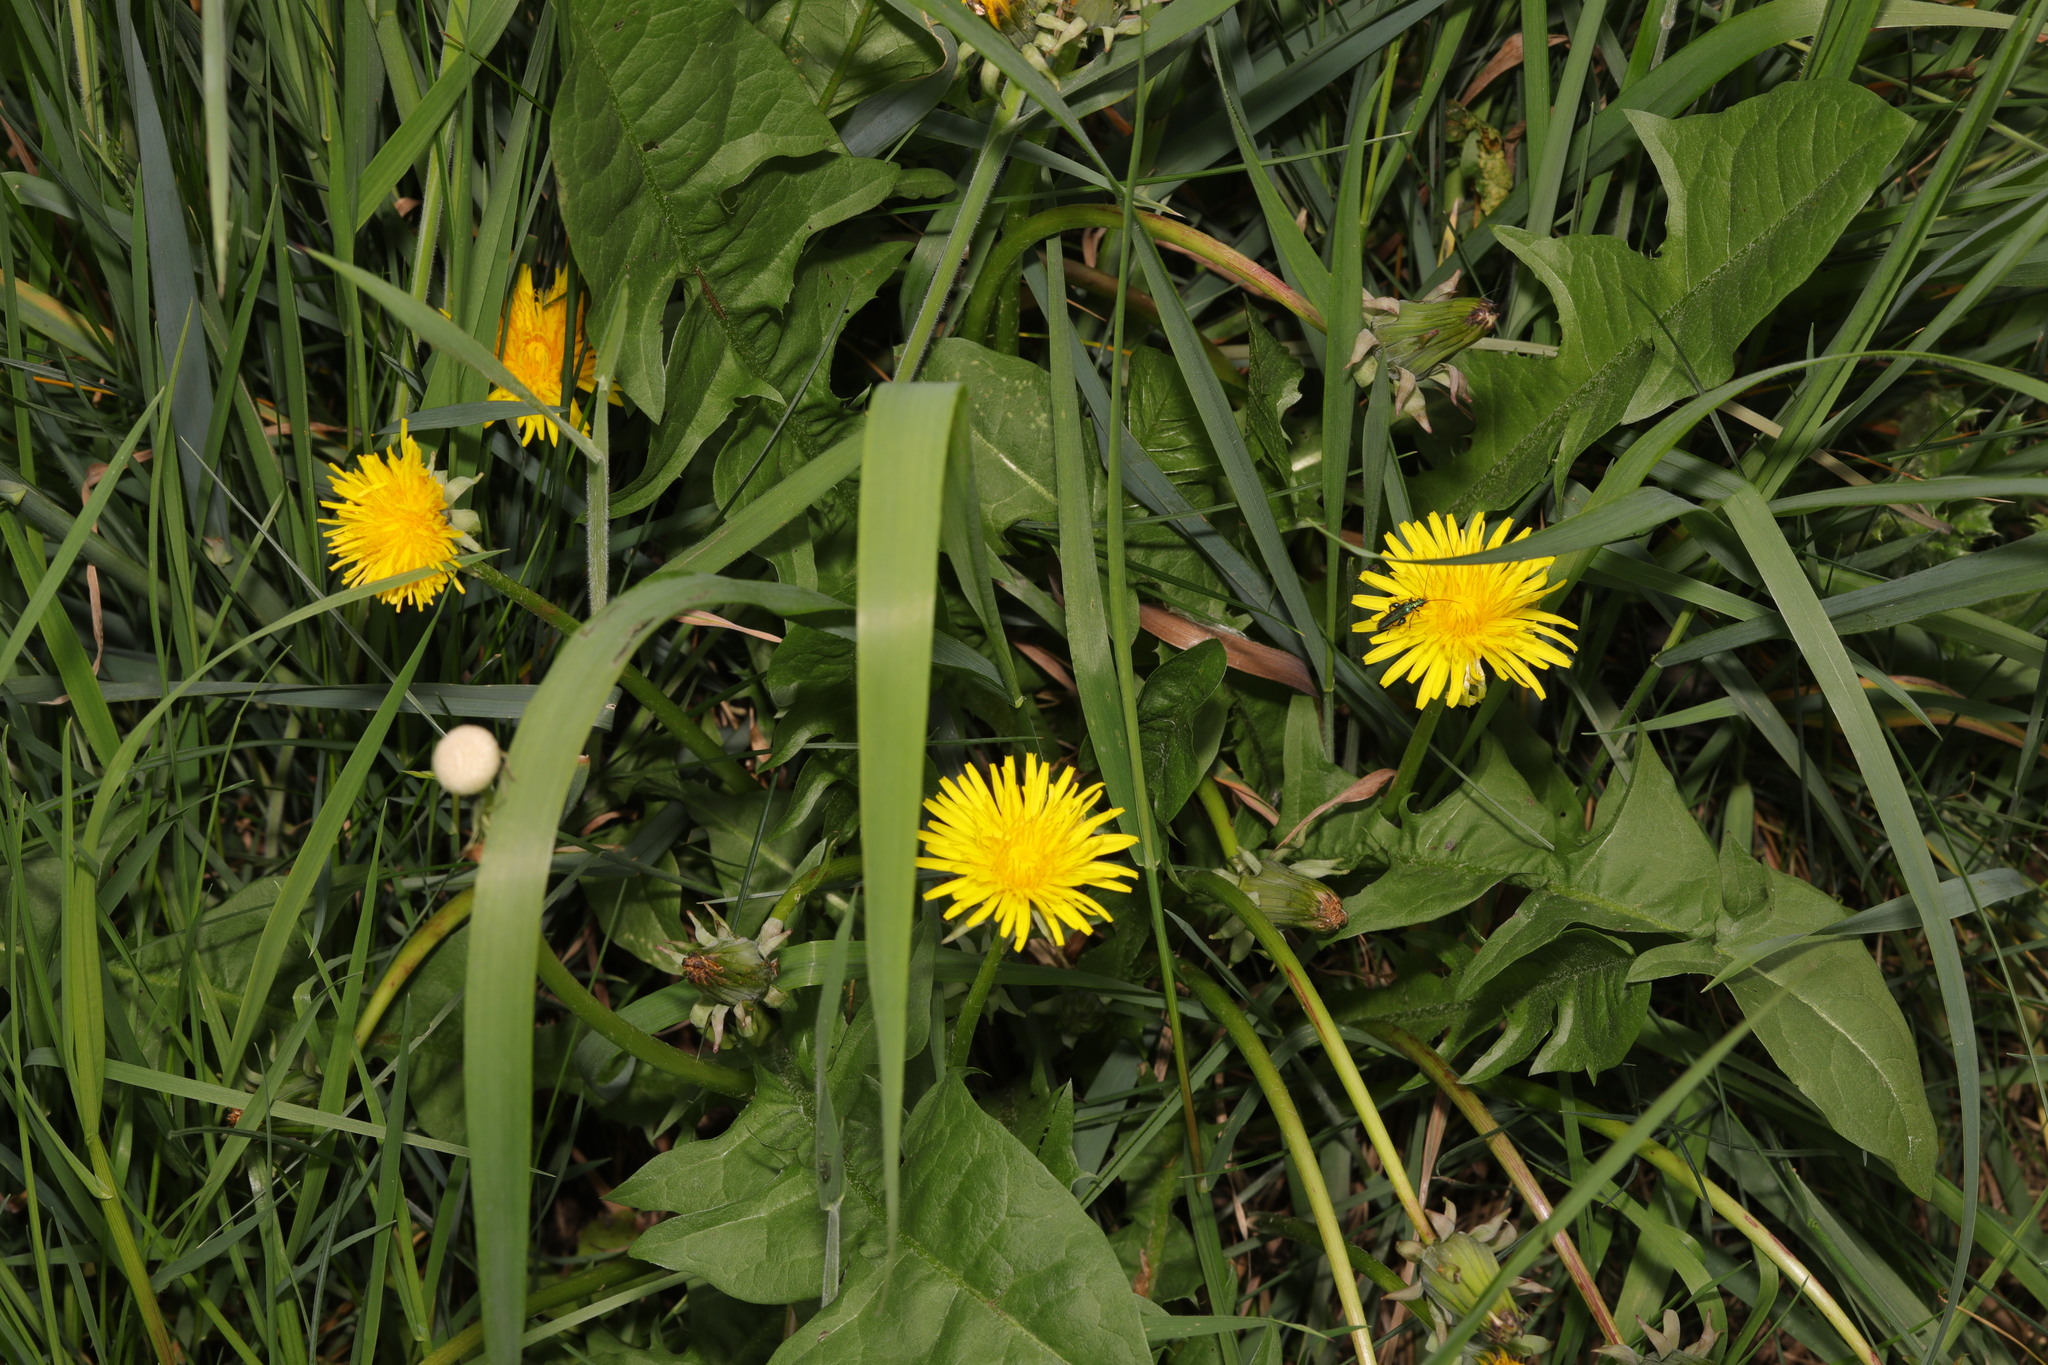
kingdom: Plantae
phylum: Tracheophyta
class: Magnoliopsida
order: Asterales
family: Asteraceae
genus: Taraxacum
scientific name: Taraxacum officinale
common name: Common dandelion
